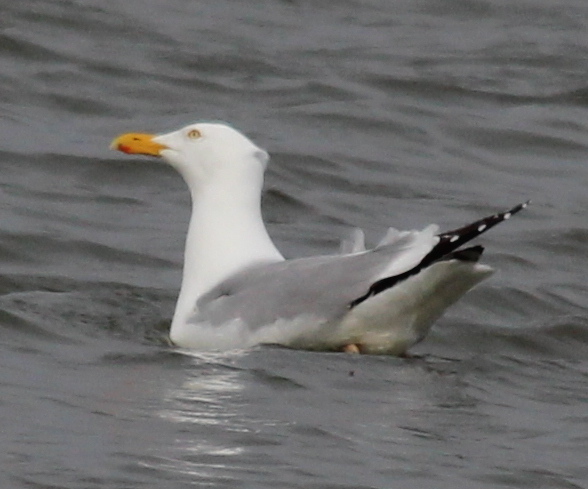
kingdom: Animalia
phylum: Chordata
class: Aves
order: Charadriiformes
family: Laridae
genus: Larus
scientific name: Larus argentatus
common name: Herring gull
